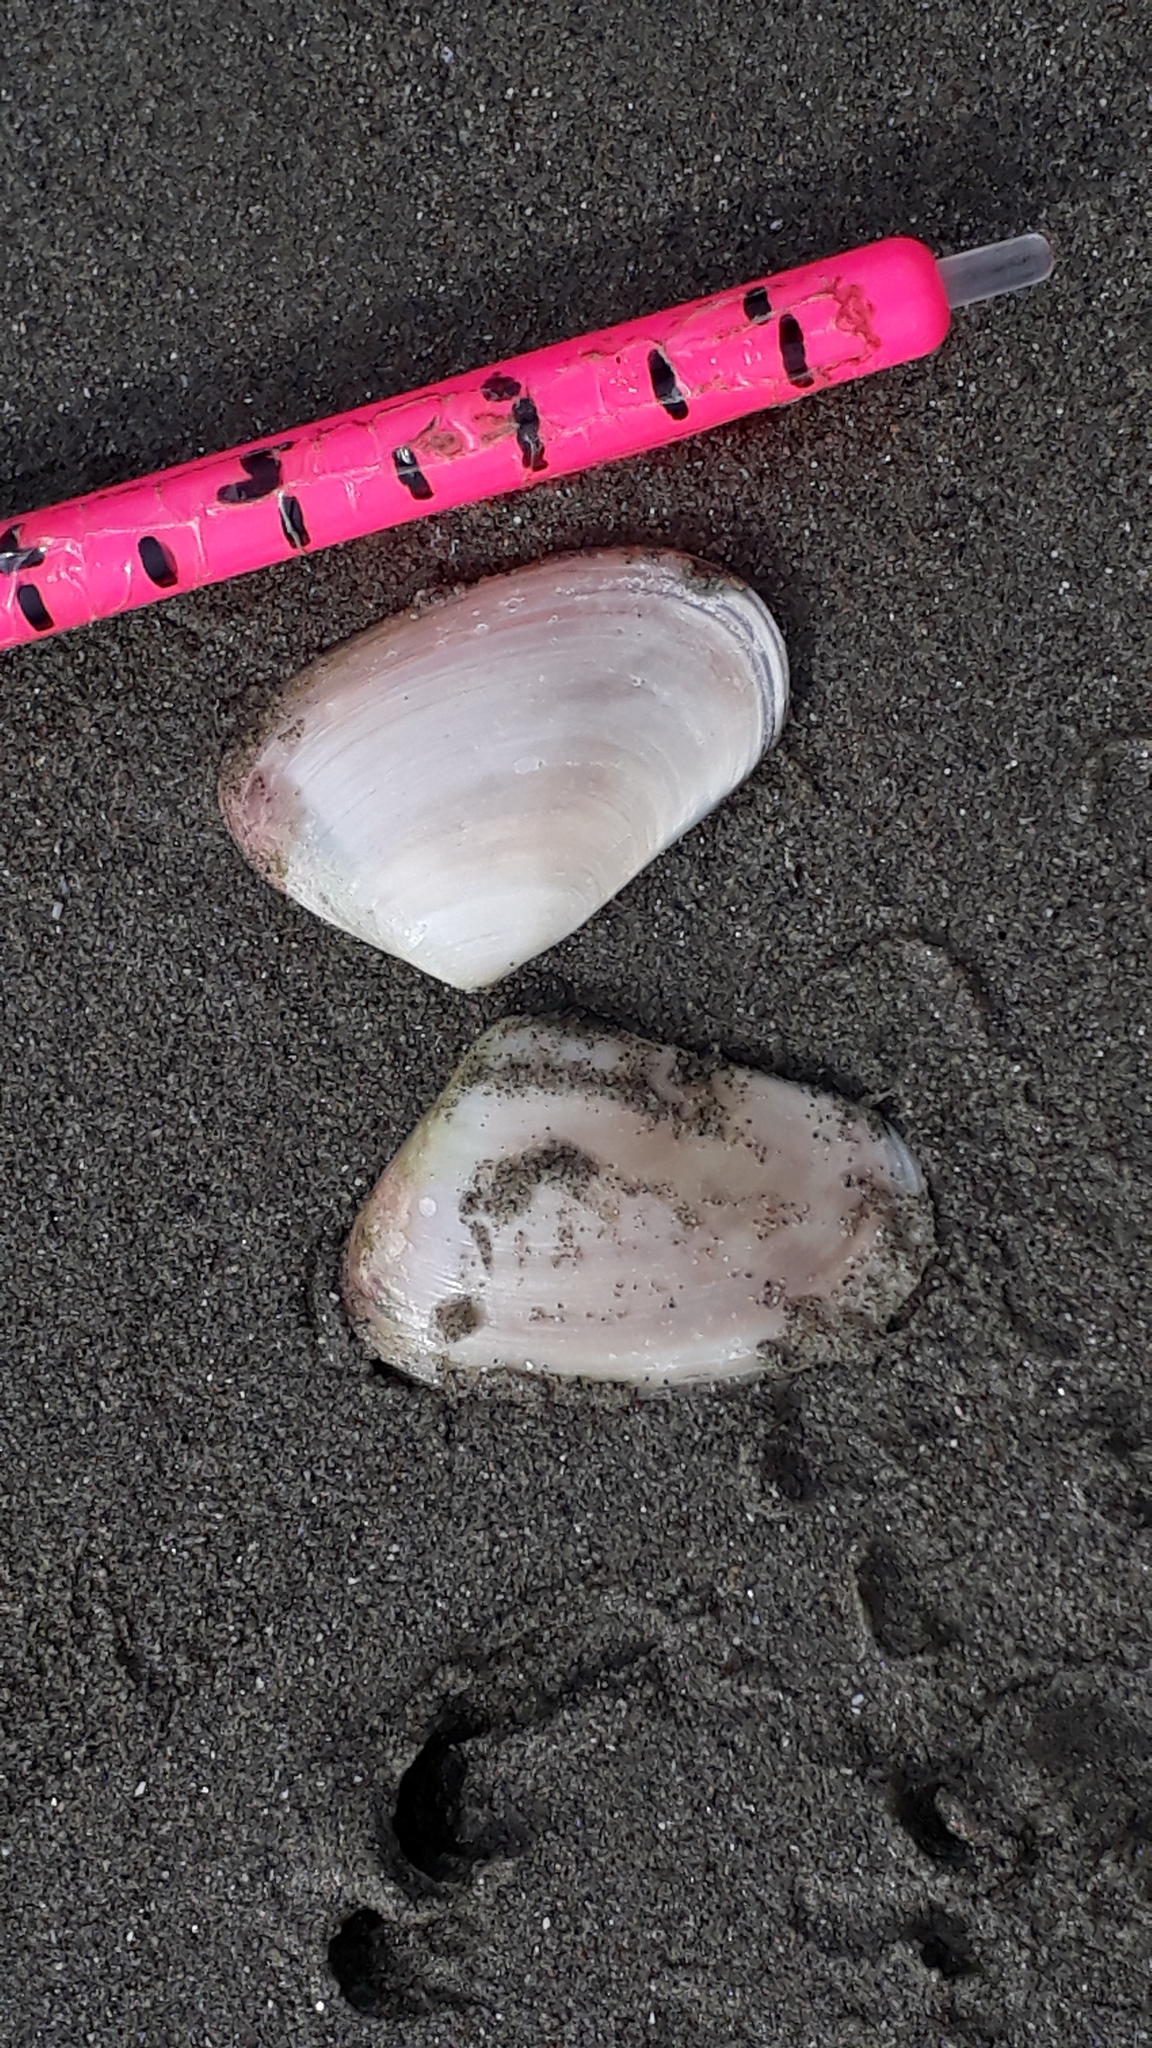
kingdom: Animalia
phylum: Mollusca
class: Bivalvia
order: Venerida
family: Mesodesmatidae
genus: Paphies
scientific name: Paphies subtriangulata
